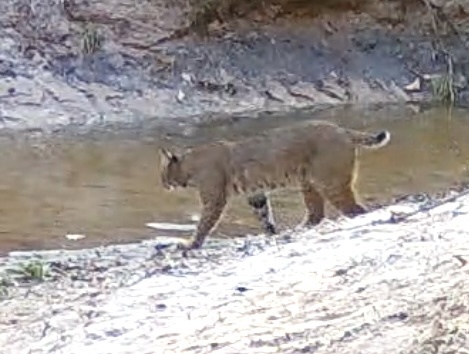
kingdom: Animalia
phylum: Chordata
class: Mammalia
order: Carnivora
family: Felidae
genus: Lynx
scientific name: Lynx rufus
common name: Bobcat
